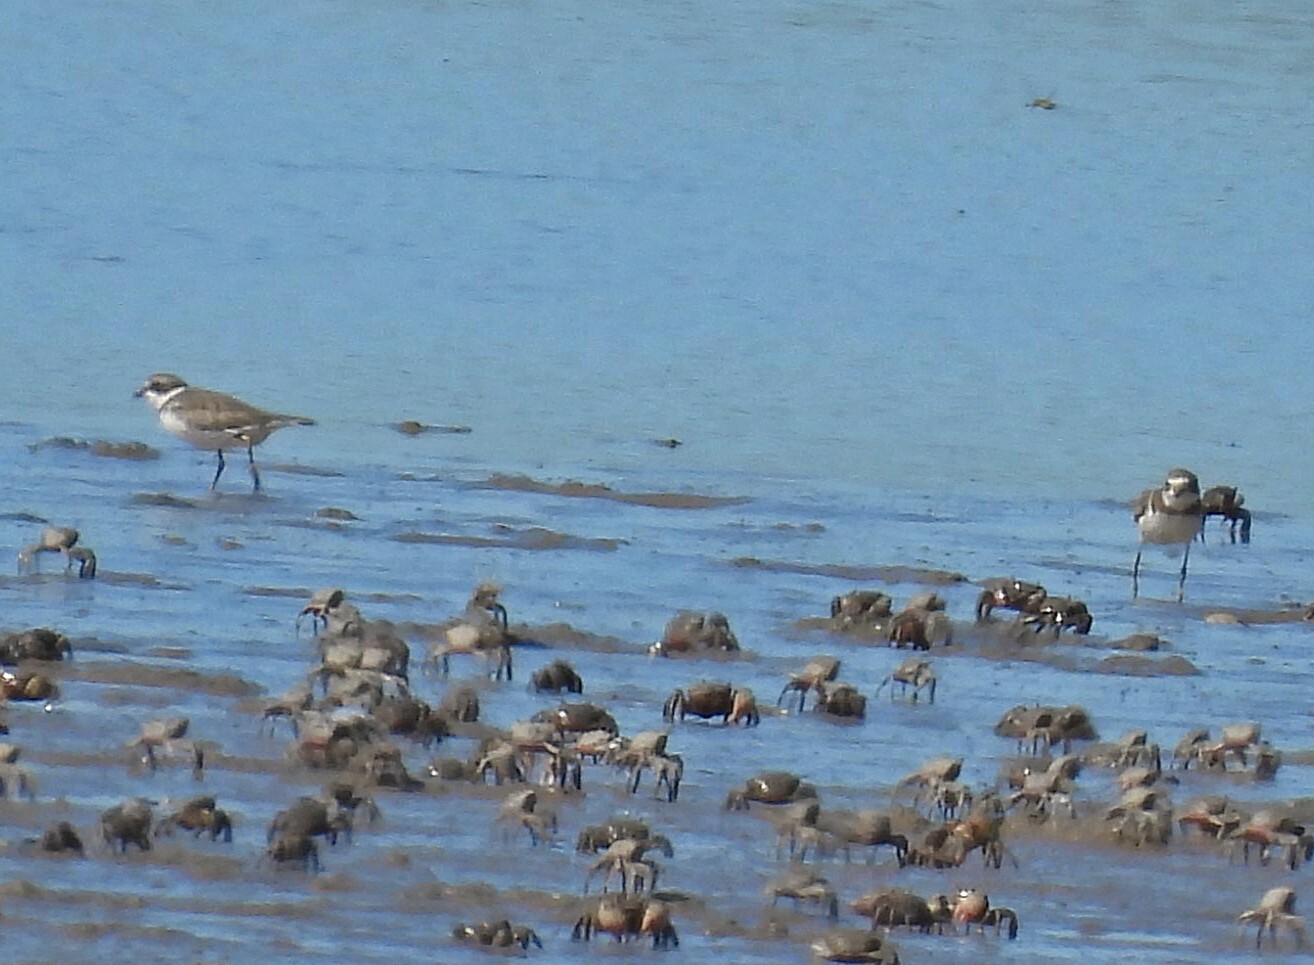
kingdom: Animalia
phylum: Chordata
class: Aves
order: Charadriiformes
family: Charadriidae
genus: Charadrius
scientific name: Charadrius semipalmatus
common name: Semipalmated plover
